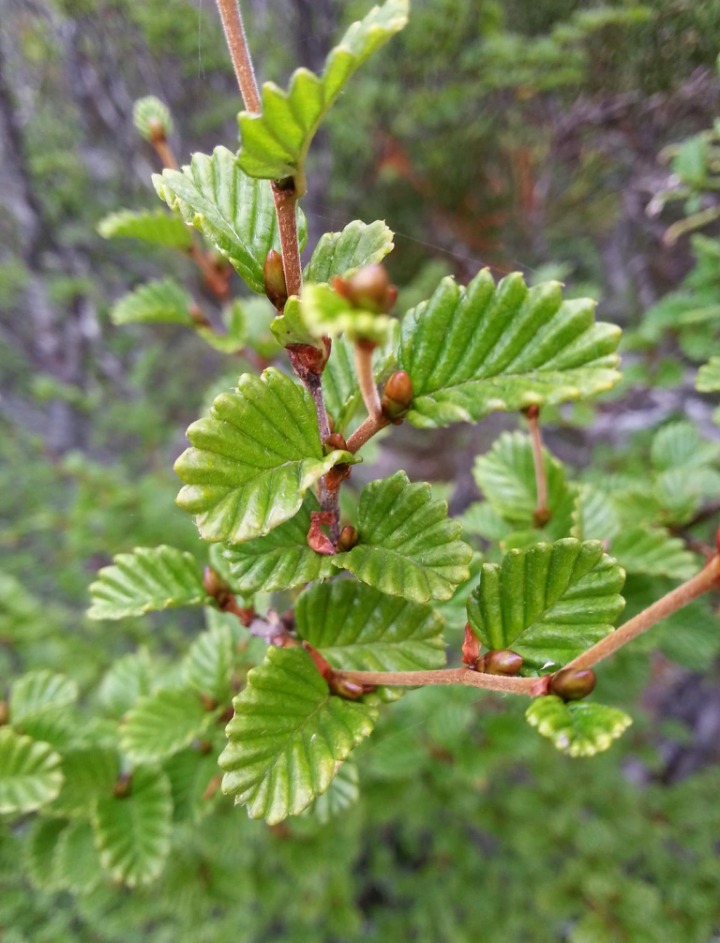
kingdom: Plantae
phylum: Tracheophyta
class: Magnoliopsida
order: Fagales
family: Nothofagaceae
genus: Nothofagus
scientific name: Nothofagus gunnii
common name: Tanglefoot
